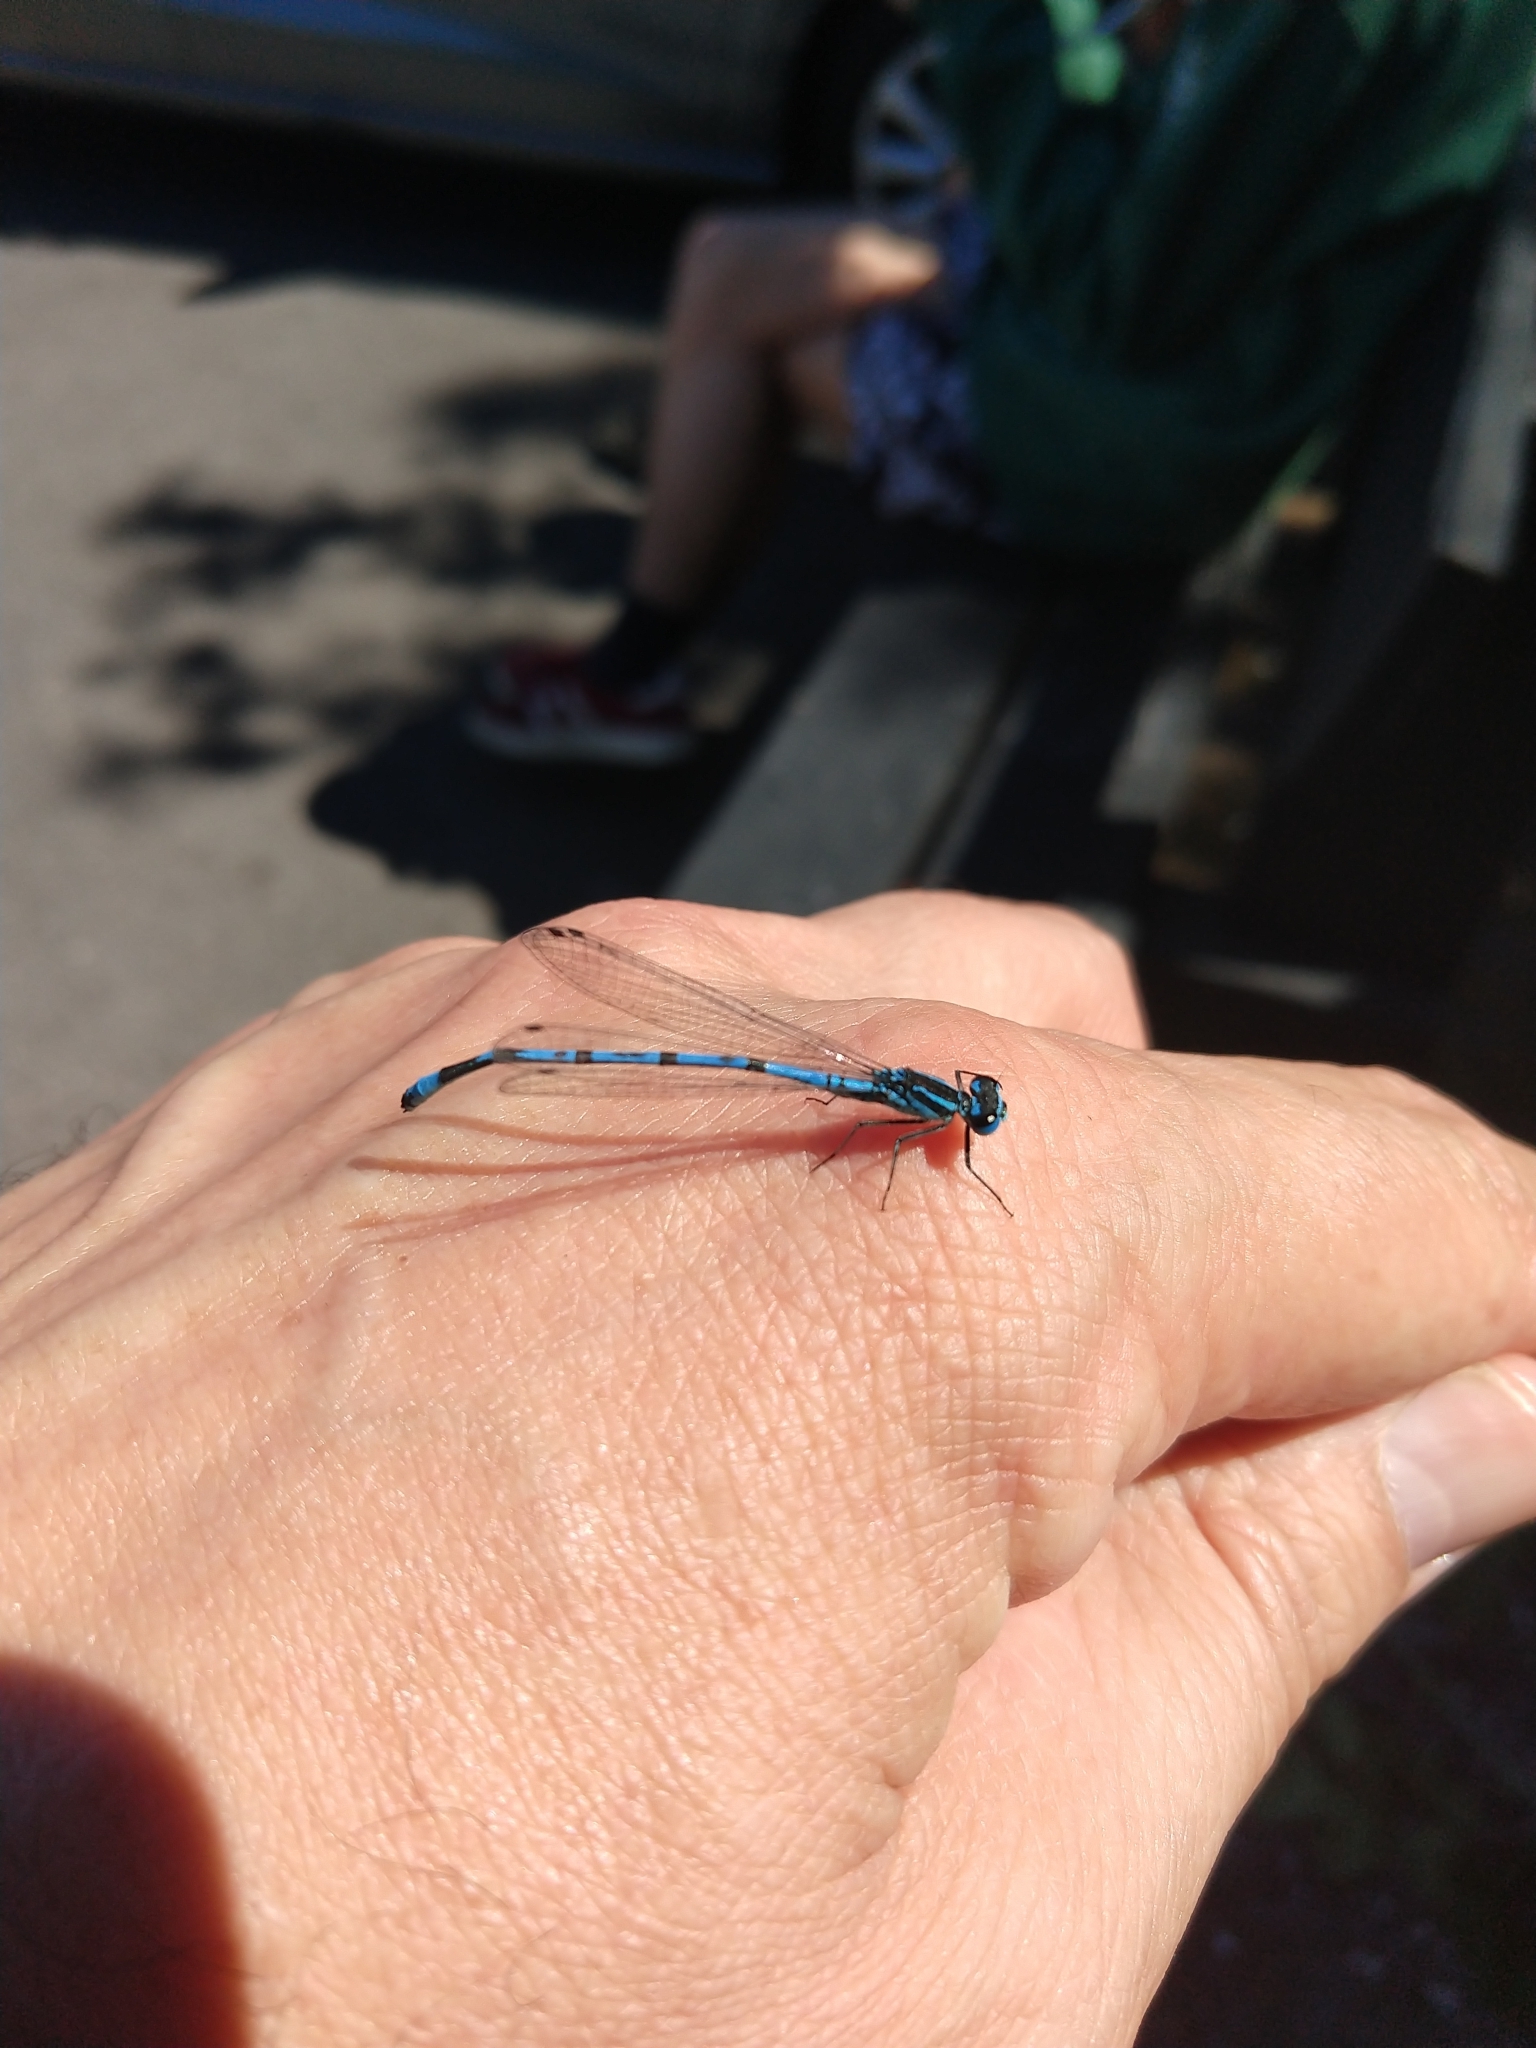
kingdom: Animalia
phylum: Arthropoda
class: Insecta
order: Odonata
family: Coenagrionidae
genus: Coenagrion
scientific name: Coenagrion puella
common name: Azure damselfly
